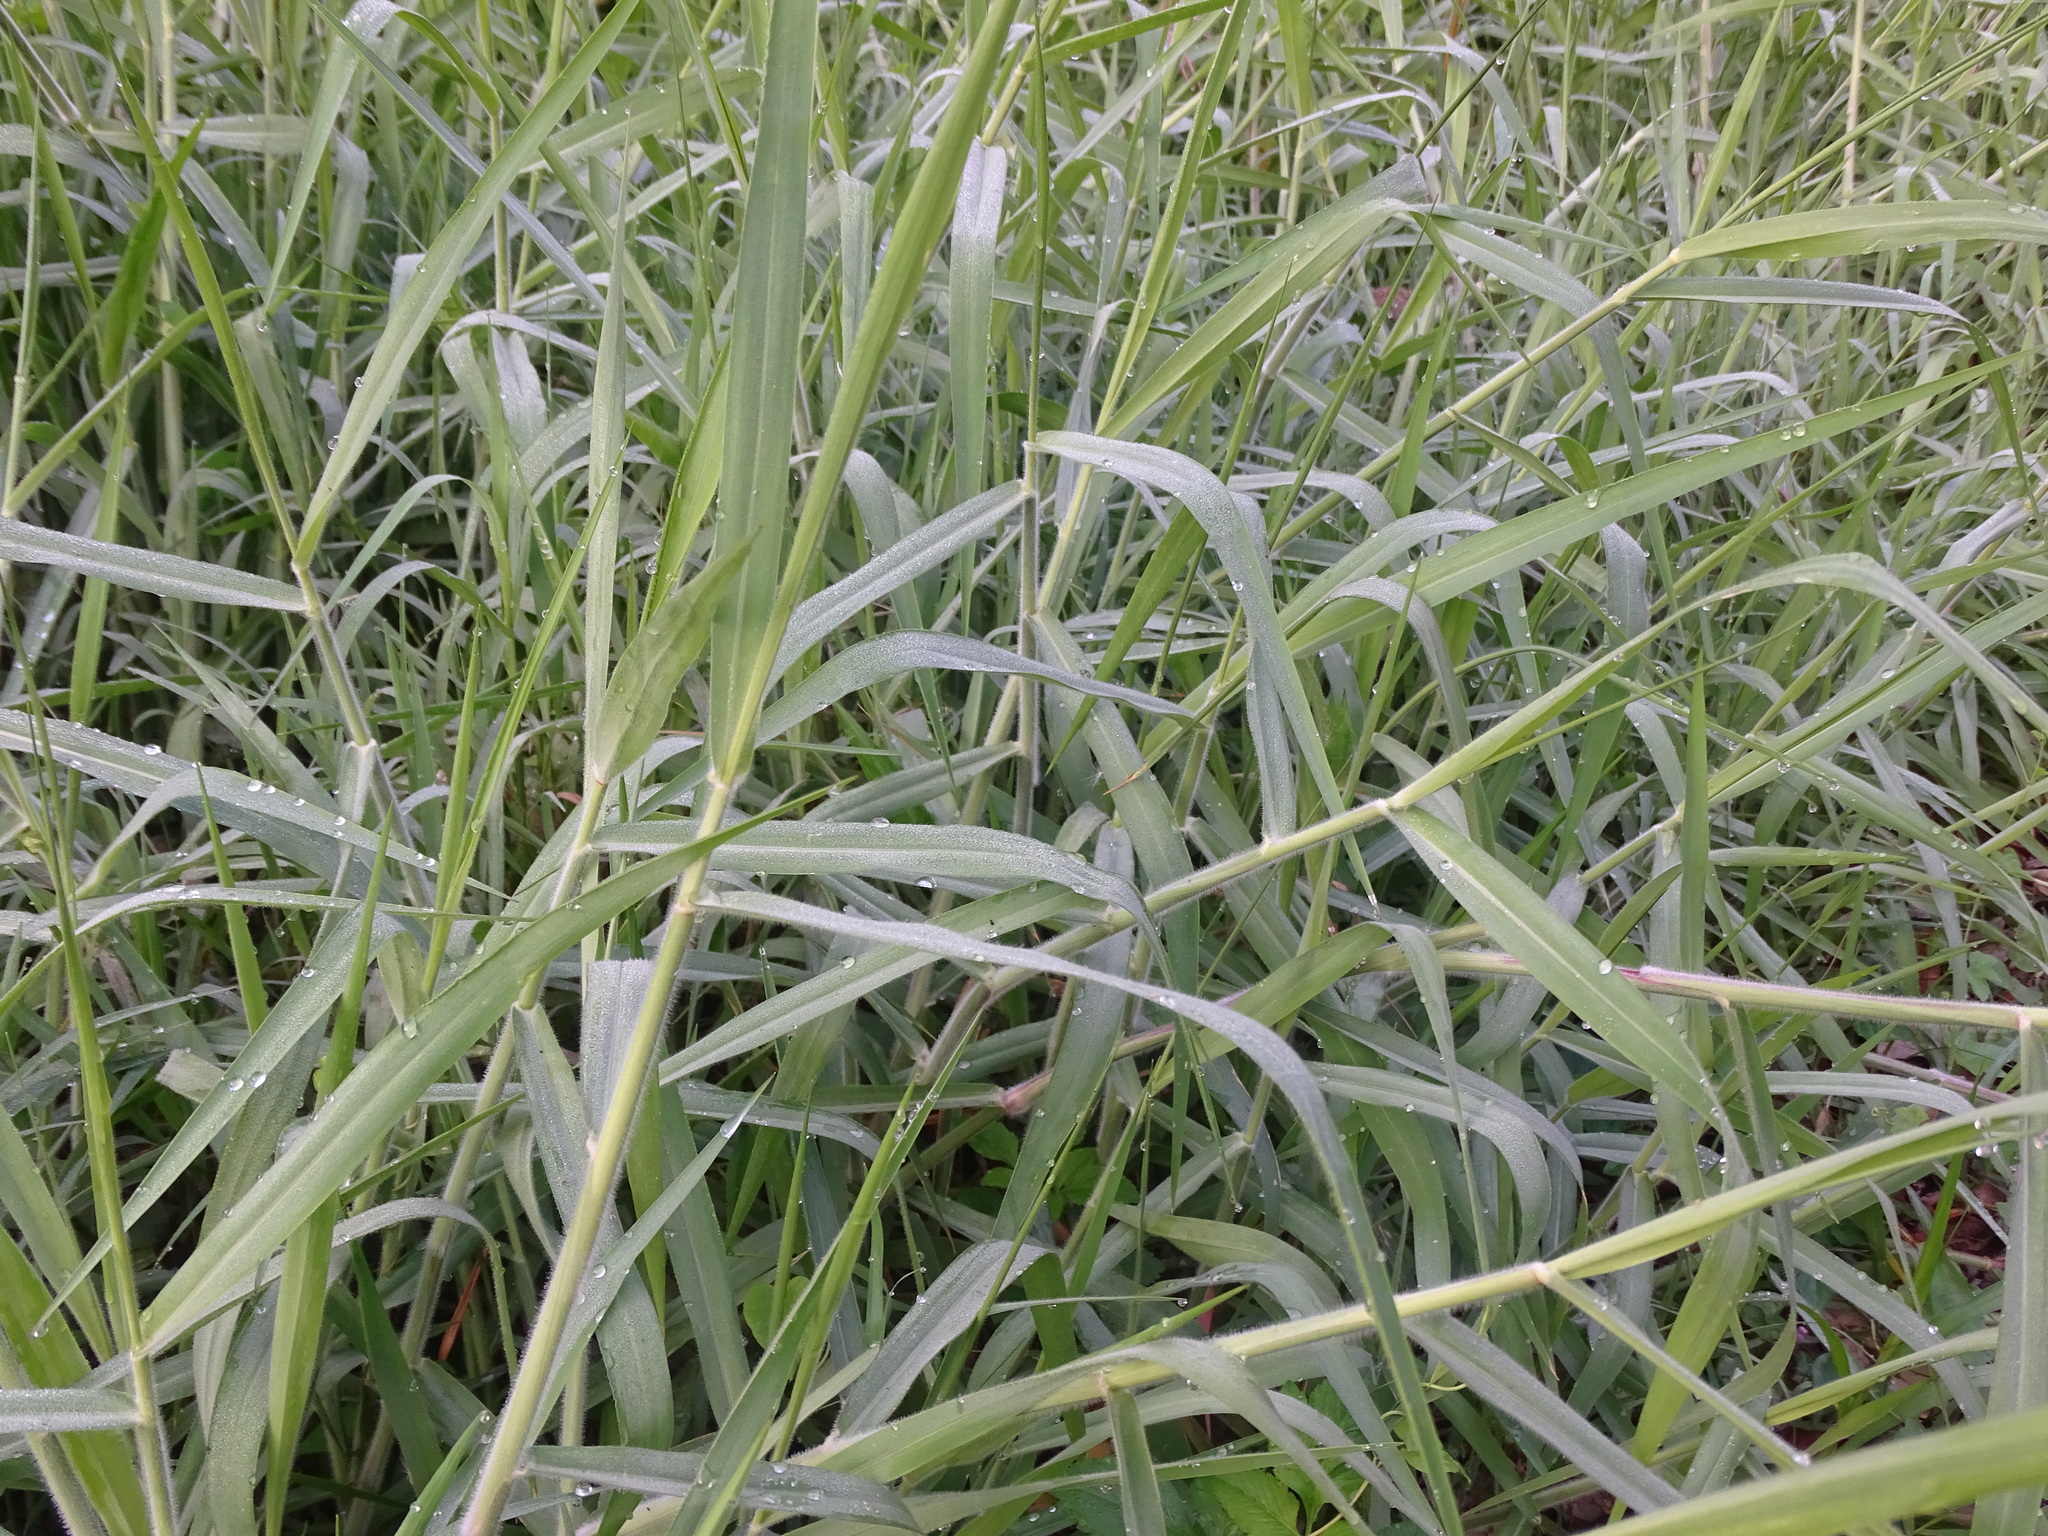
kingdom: Plantae
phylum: Tracheophyta
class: Liliopsida
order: Poales
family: Poaceae
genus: Urochloa
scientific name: Urochloa mutica
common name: Para grass
